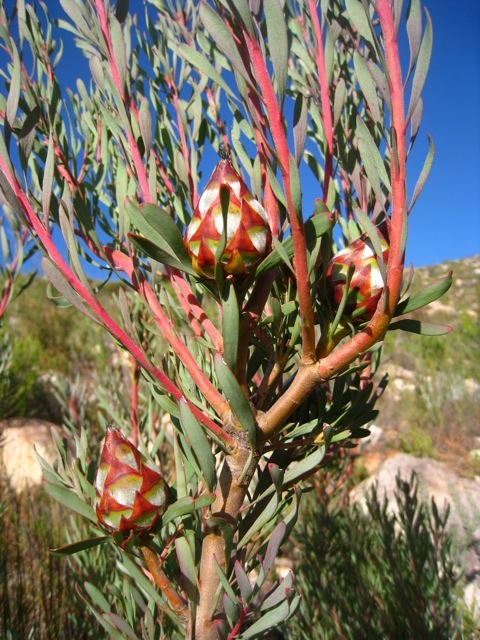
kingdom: Plantae
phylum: Tracheophyta
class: Magnoliopsida
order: Proteales
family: Proteaceae
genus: Leucadendron
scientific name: Leucadendron rubrum
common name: Spinning top
